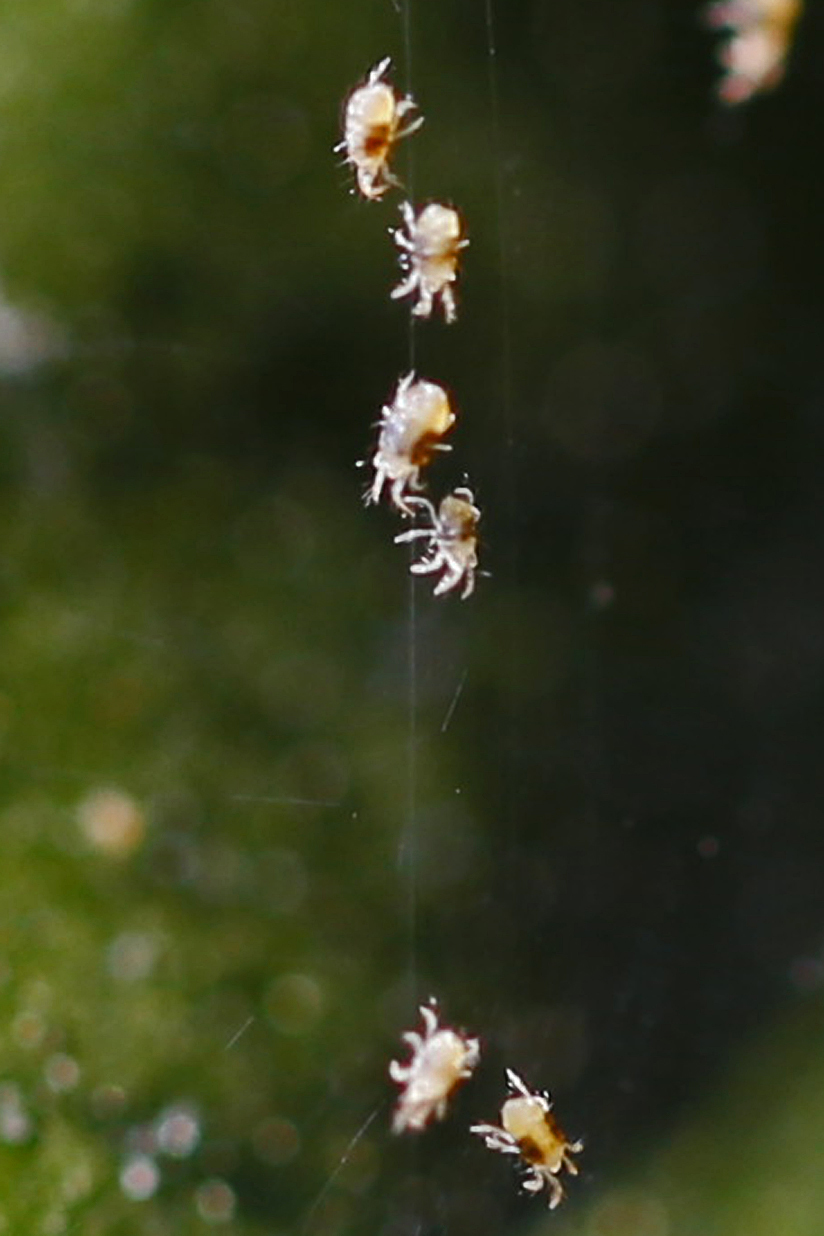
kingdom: Animalia
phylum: Arthropoda
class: Arachnida
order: Trombidiformes
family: Tetranychidae
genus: Tetranychus
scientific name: Tetranychus urticae
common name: Carmine spider mite
